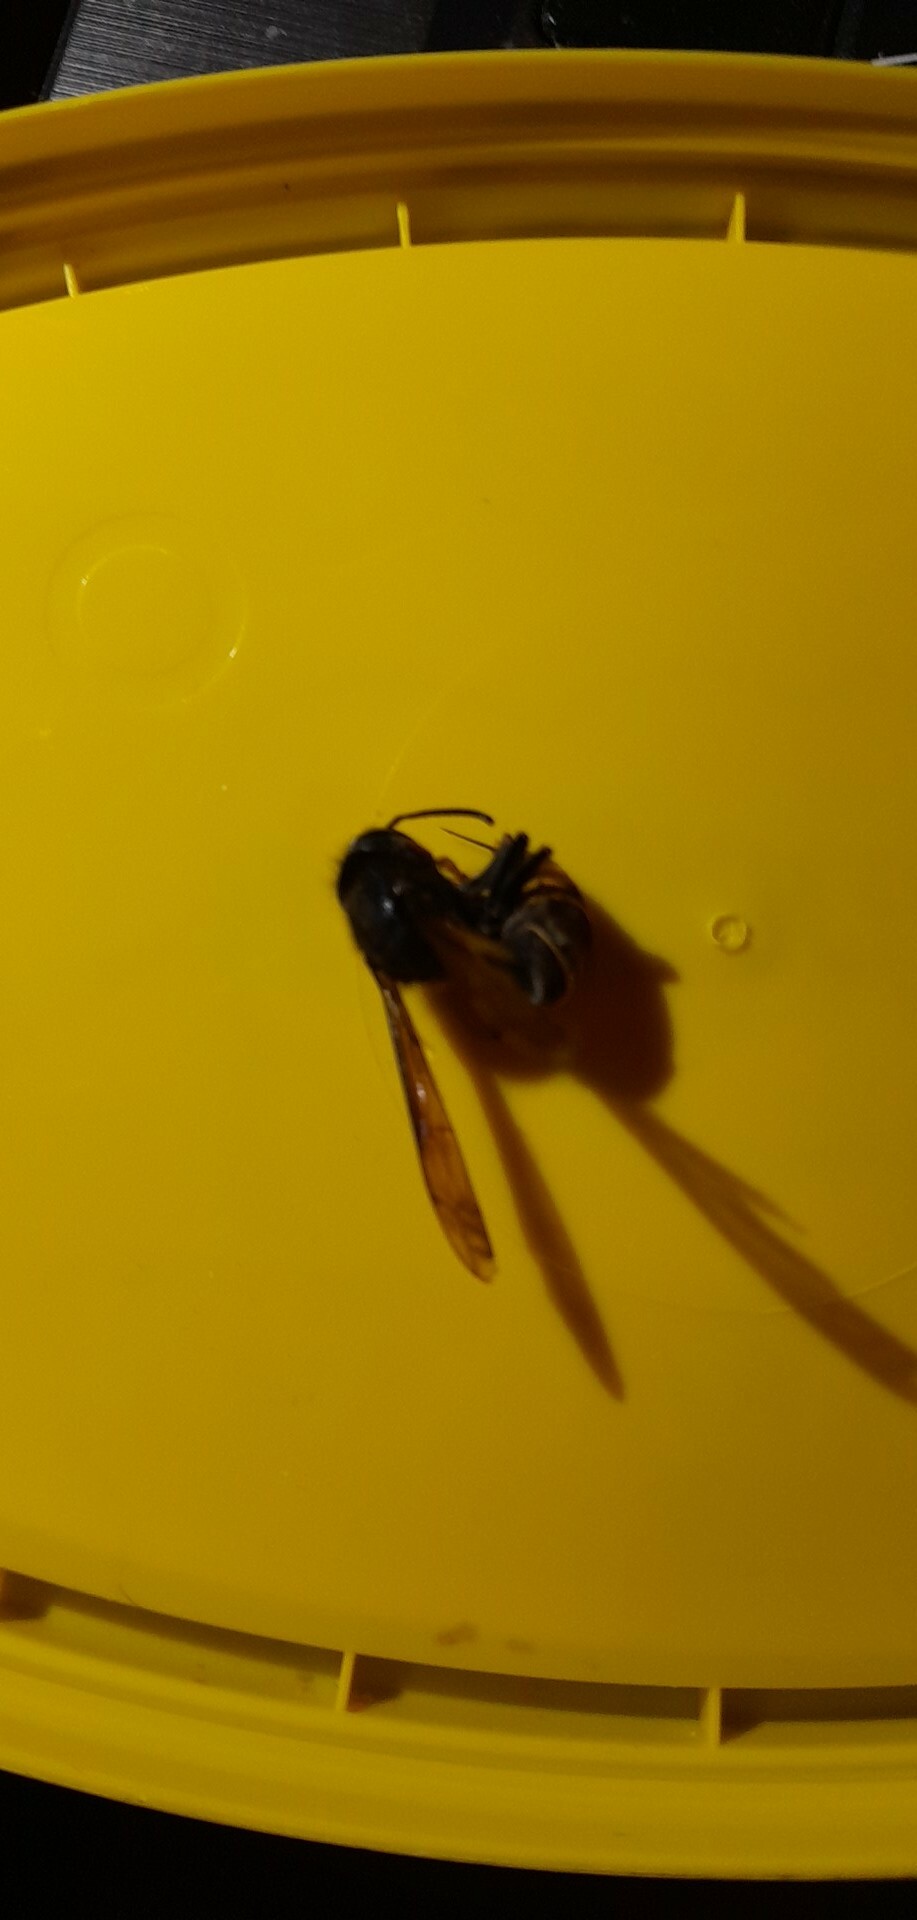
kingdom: Animalia
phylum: Arthropoda
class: Insecta
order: Hymenoptera
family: Vespidae
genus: Vespa
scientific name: Vespa velutina
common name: Asian hornet
